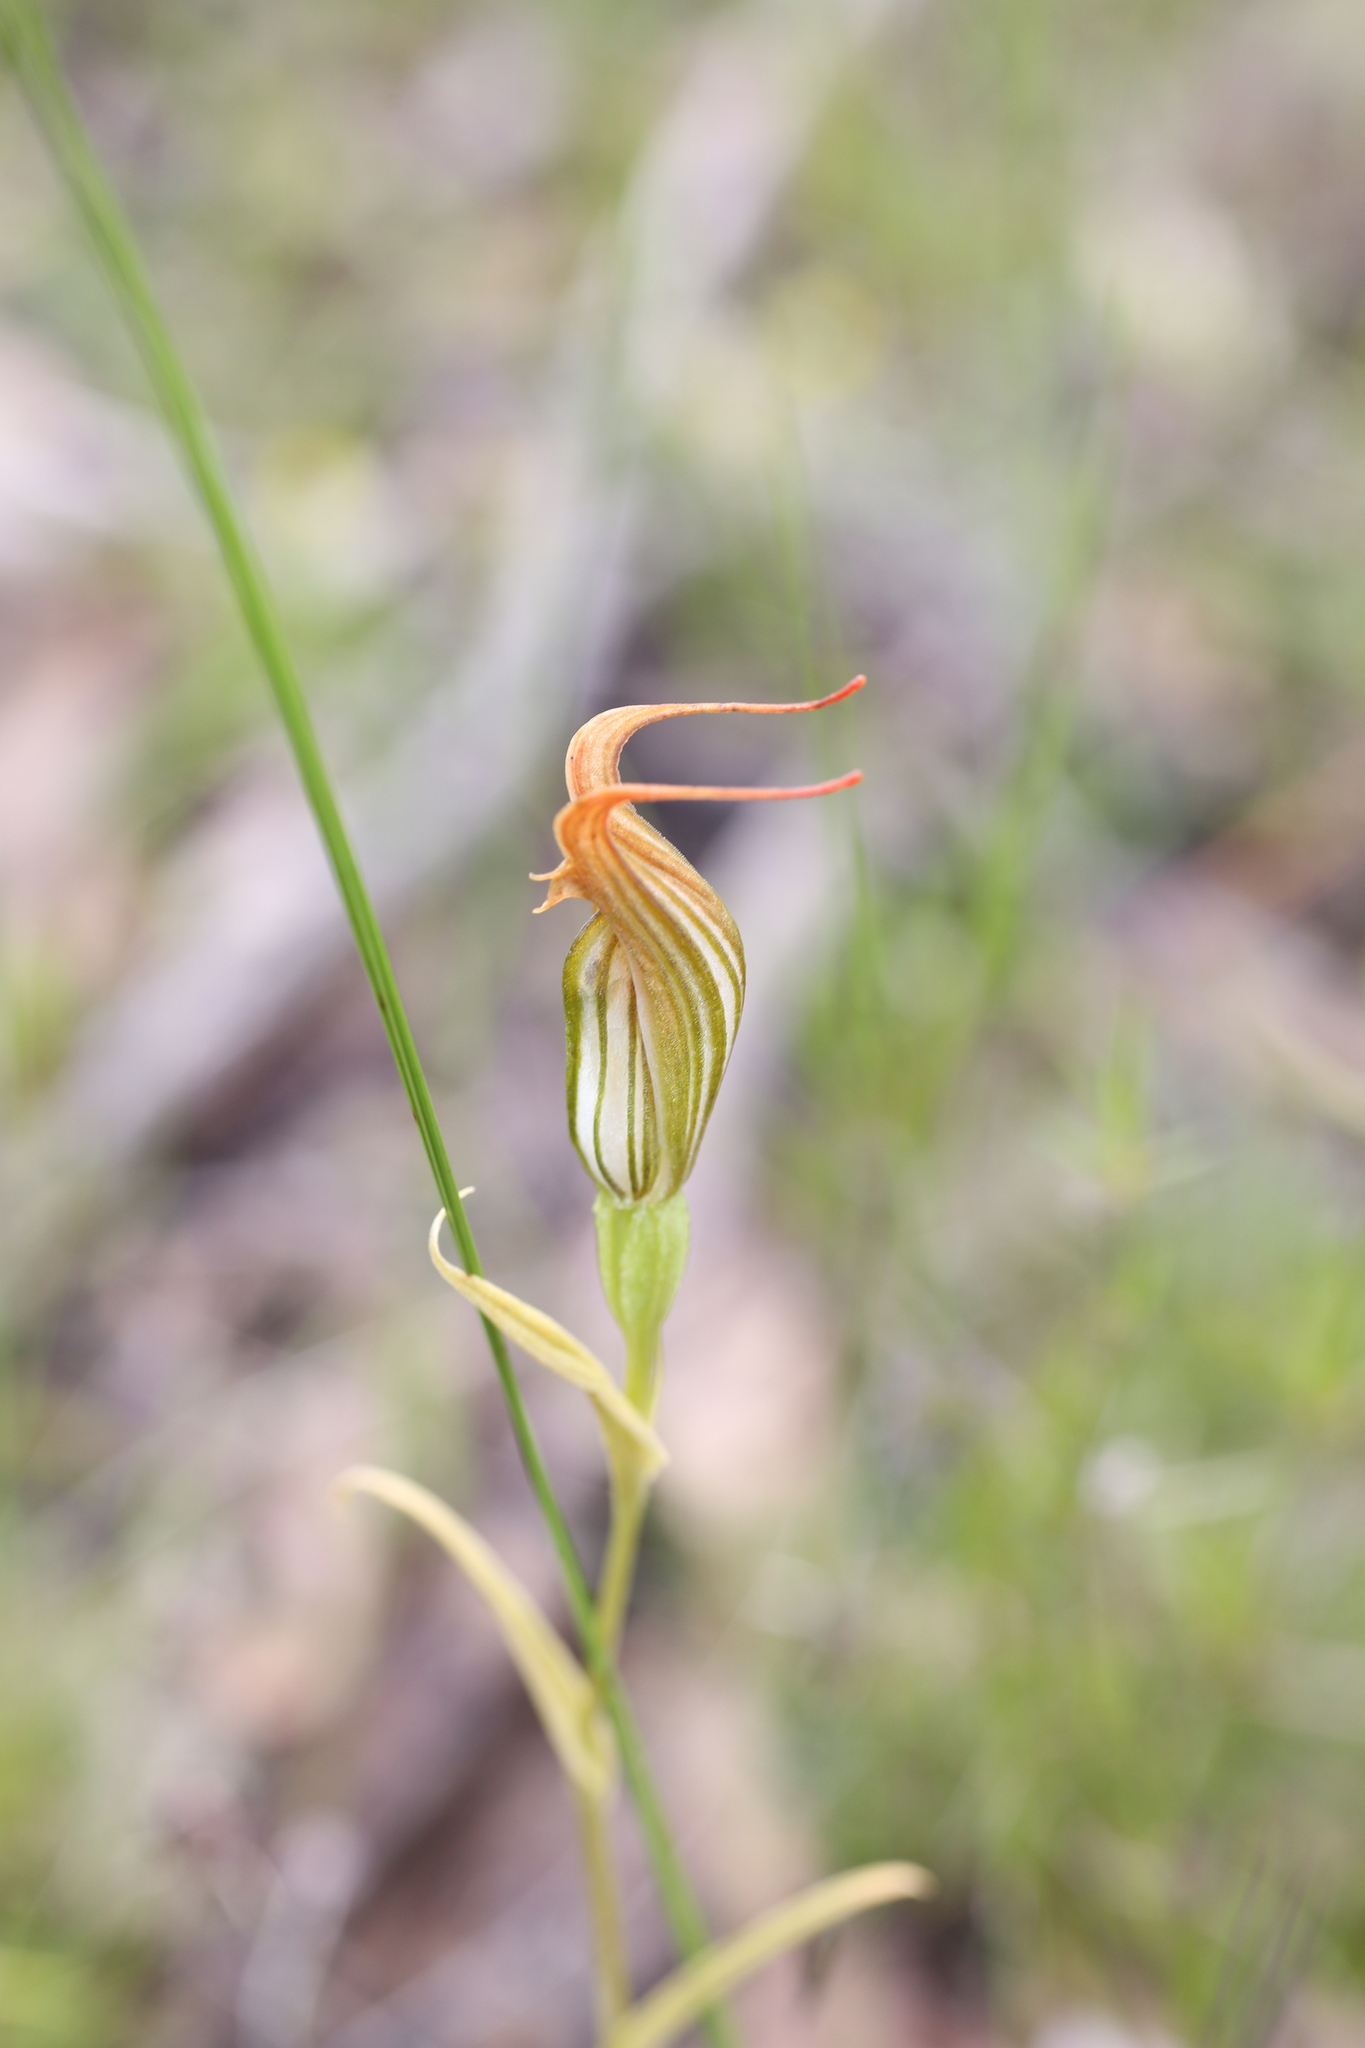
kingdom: Plantae
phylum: Tracheophyta
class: Liliopsida
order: Asparagales
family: Orchidaceae
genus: Pterostylis
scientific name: Pterostylis recurva
